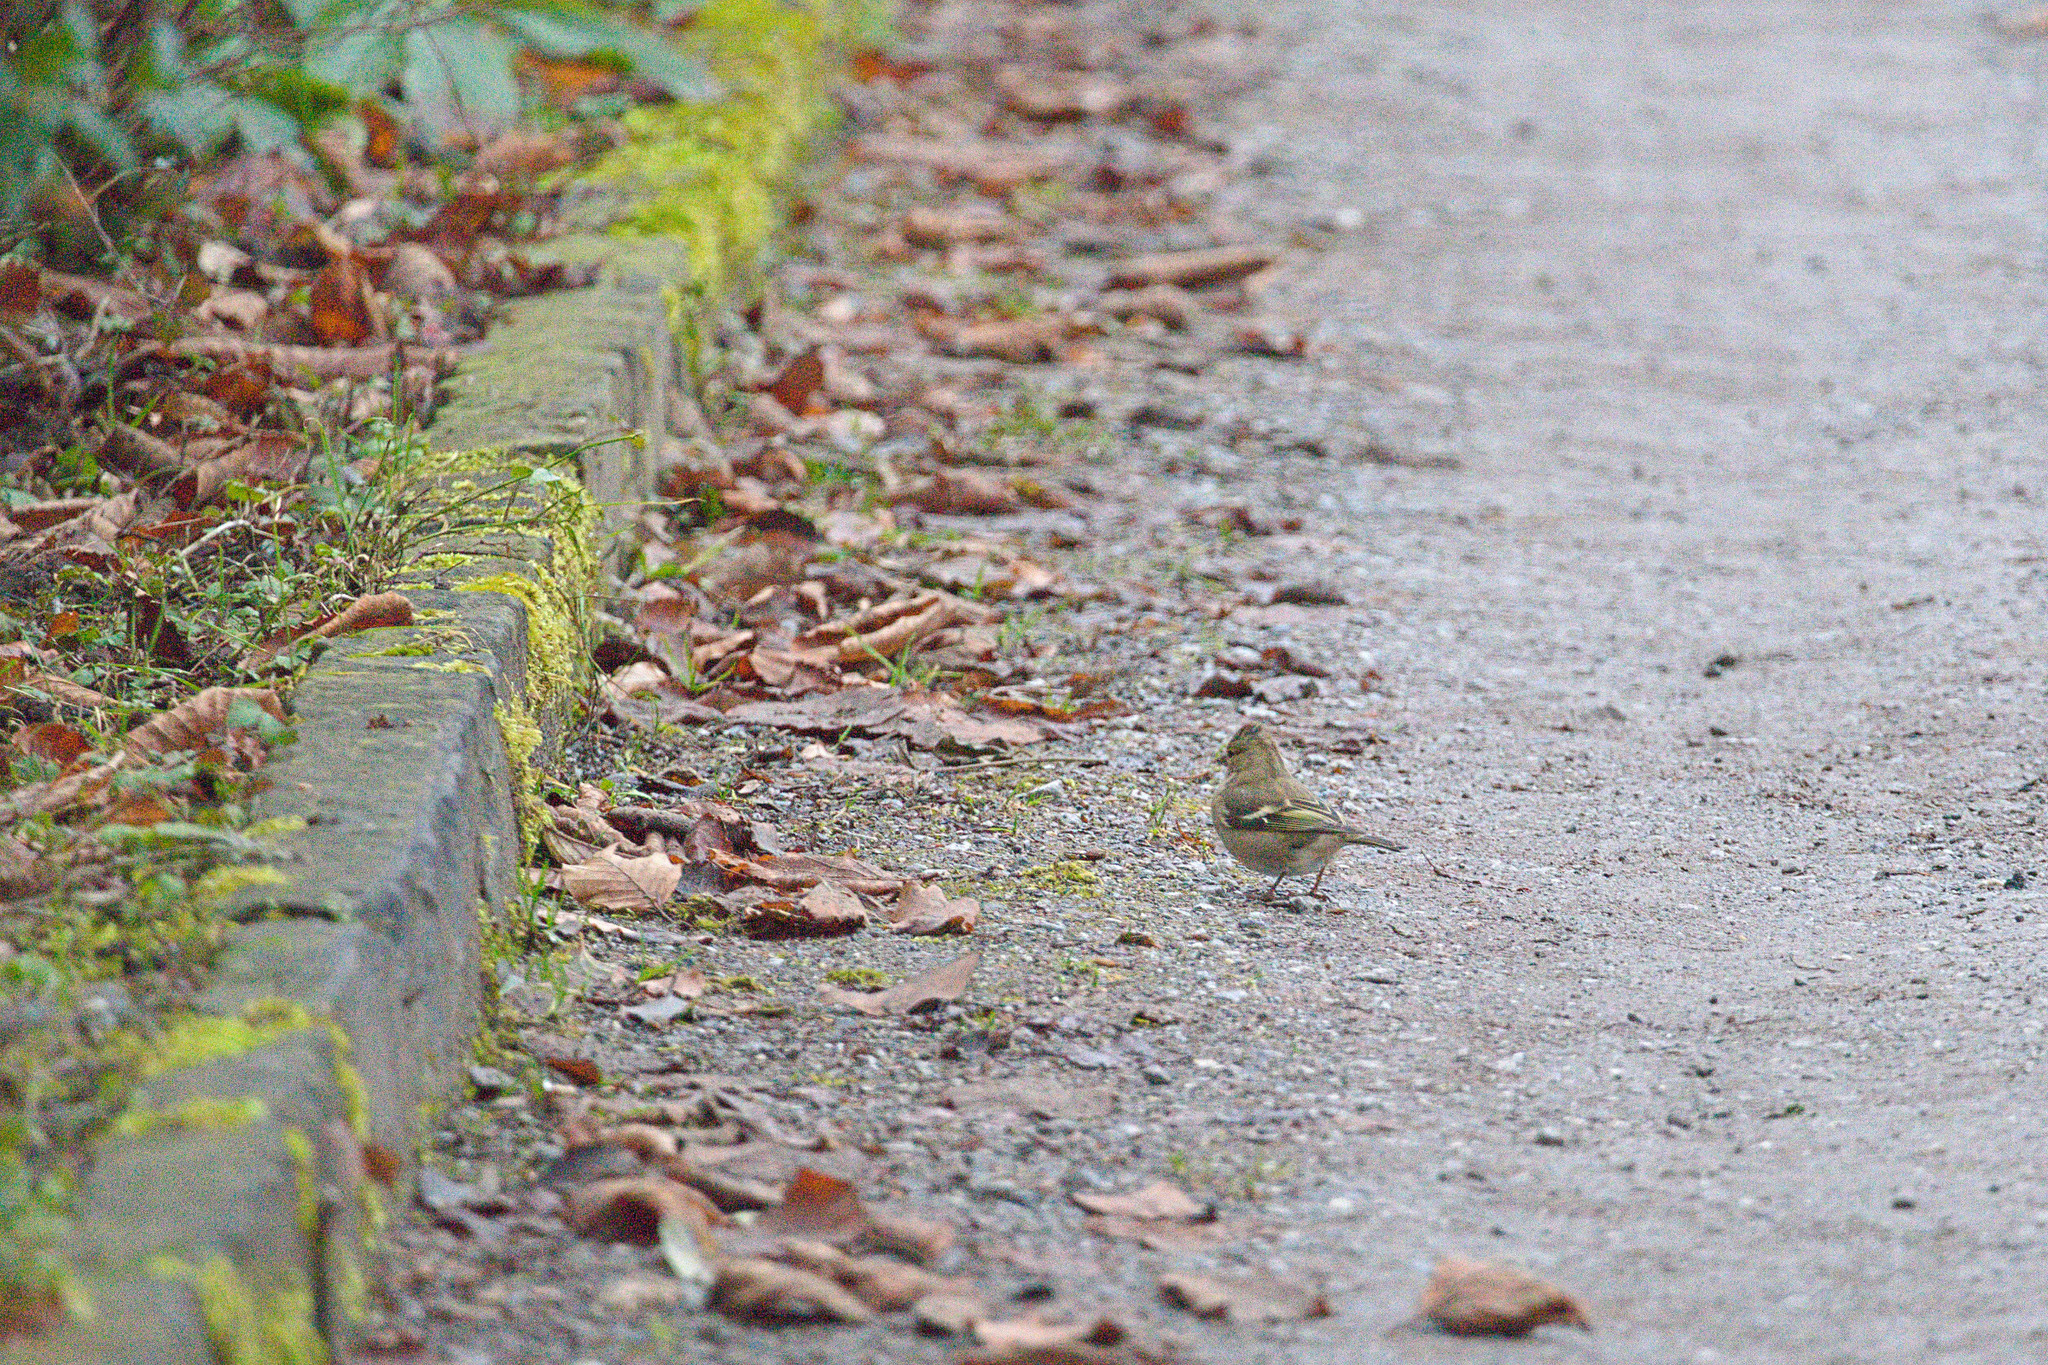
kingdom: Animalia
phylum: Chordata
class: Aves
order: Passeriformes
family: Fringillidae
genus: Fringilla
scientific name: Fringilla coelebs
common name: Common chaffinch
